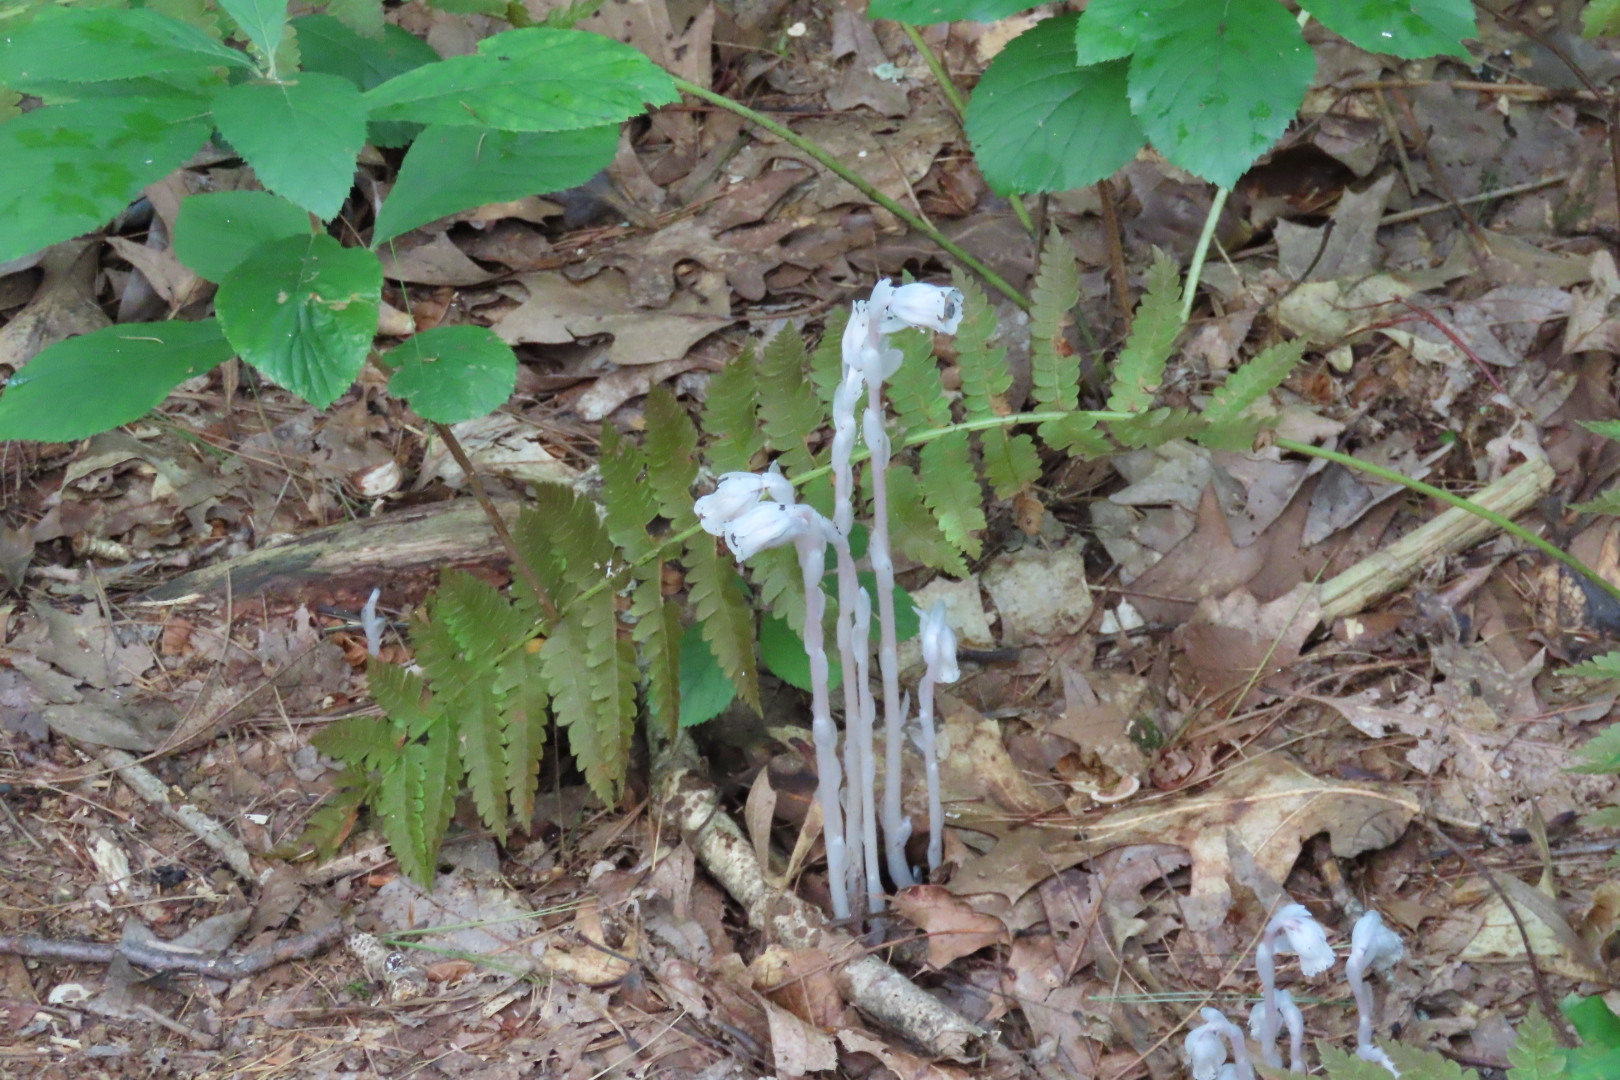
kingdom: Plantae
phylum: Tracheophyta
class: Magnoliopsida
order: Ericales
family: Ericaceae
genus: Monotropa
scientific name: Monotropa uniflora
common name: Convulsion root
